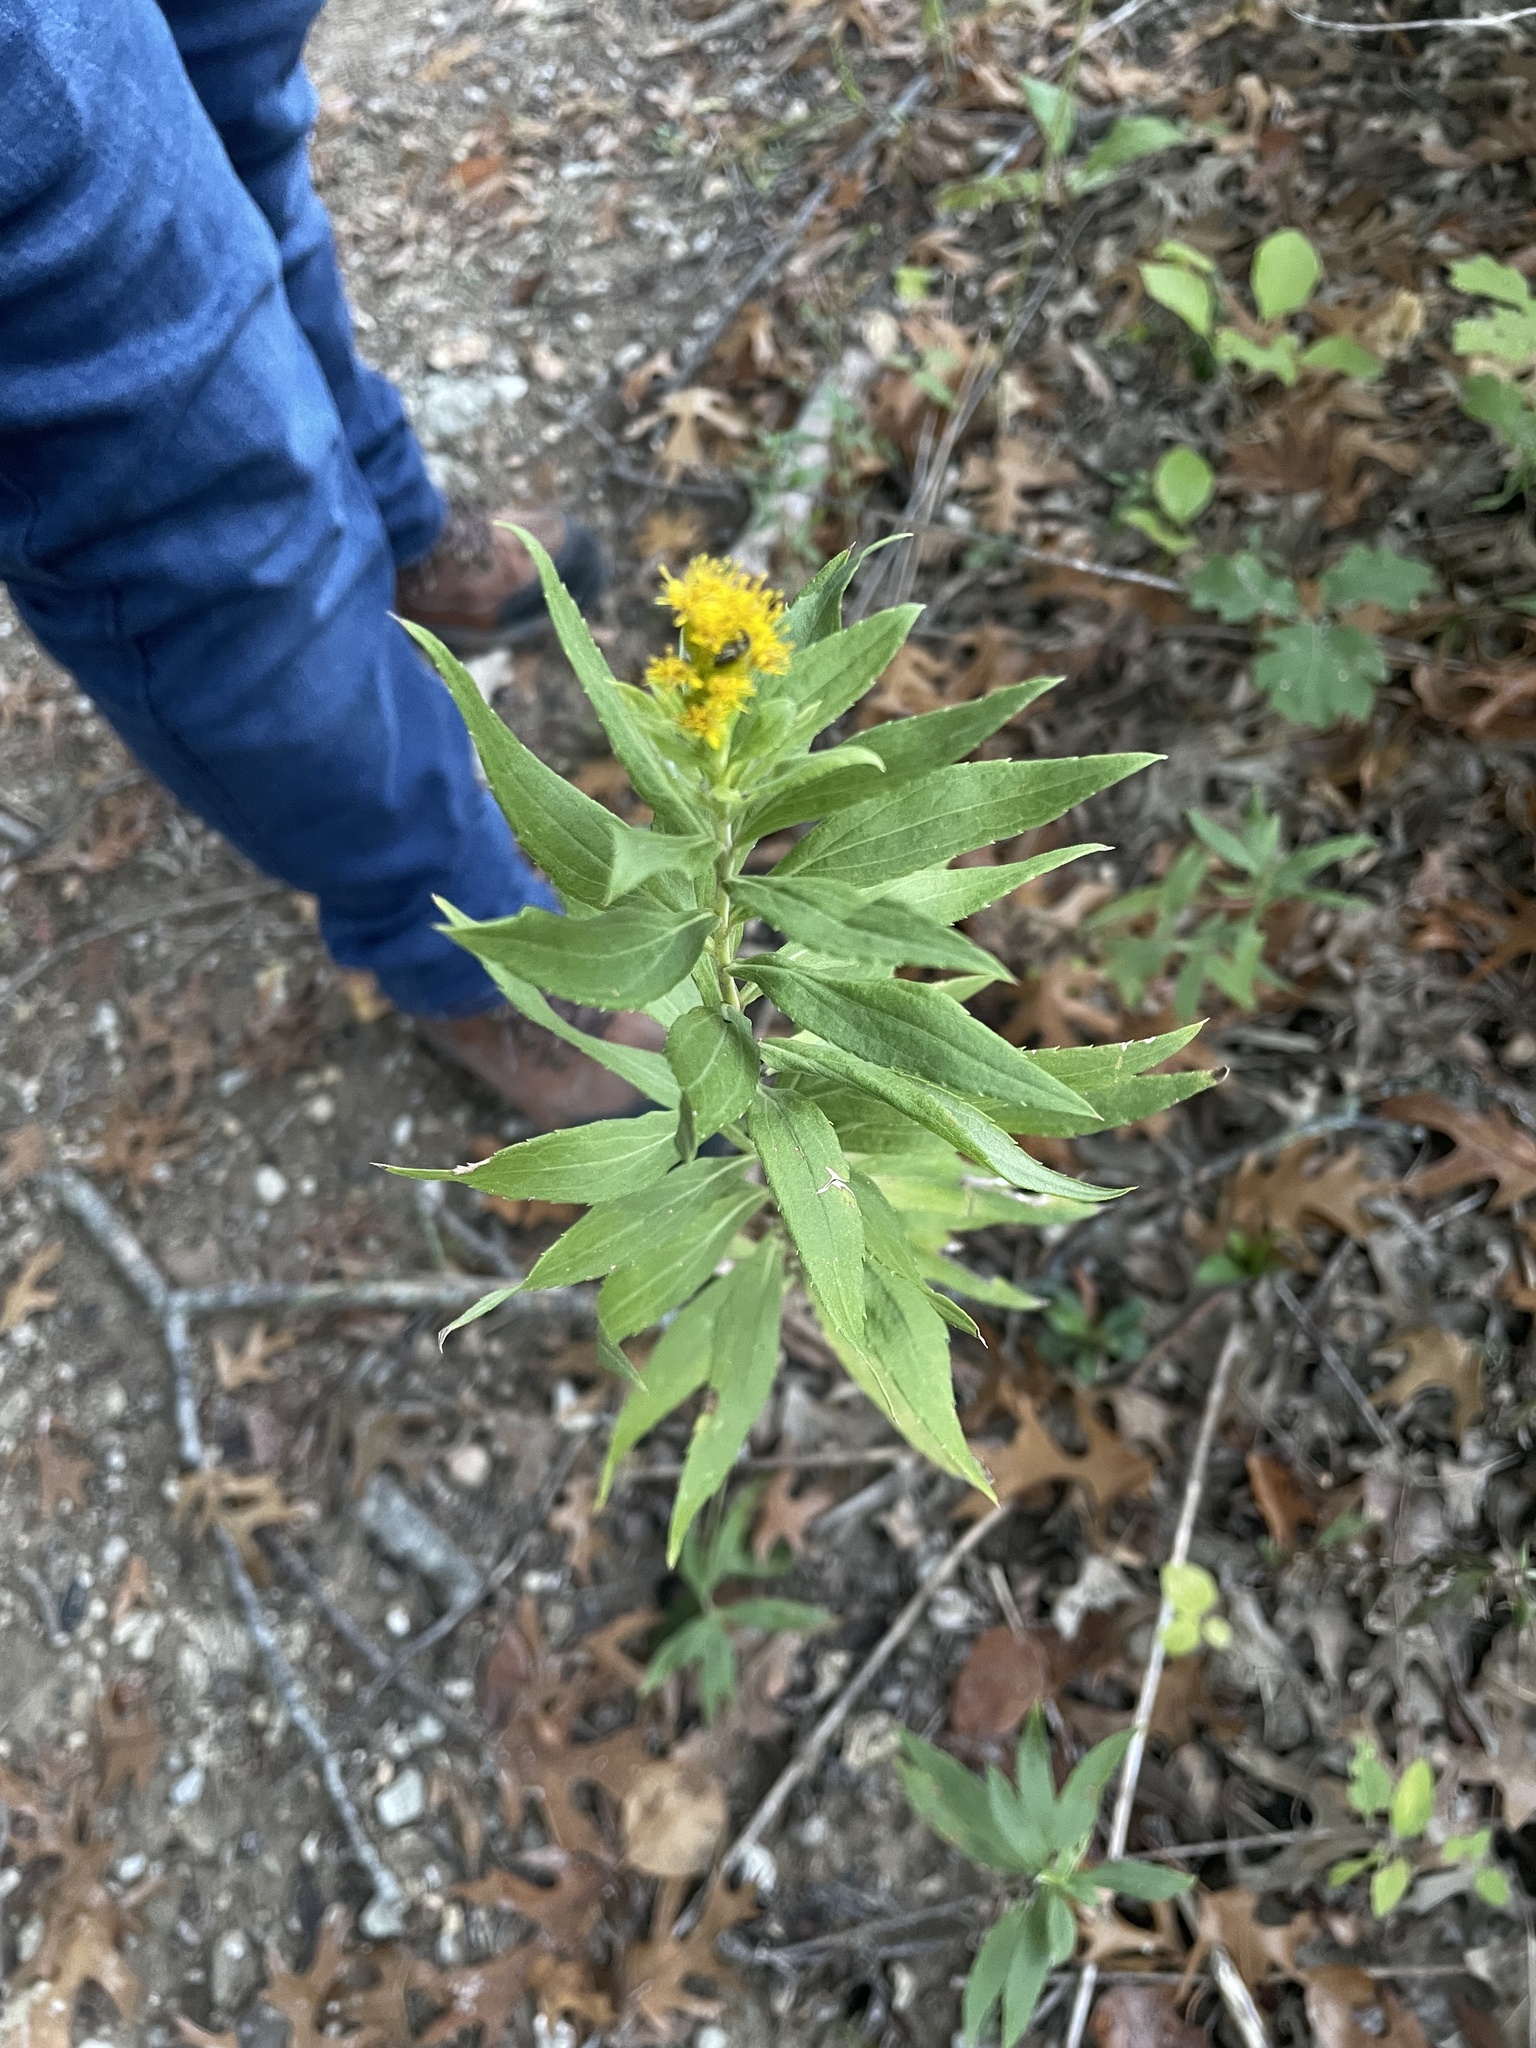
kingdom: Plantae
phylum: Tracheophyta
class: Magnoliopsida
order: Asterales
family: Asteraceae
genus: Solidago
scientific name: Solidago altissima
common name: Late goldenrod
